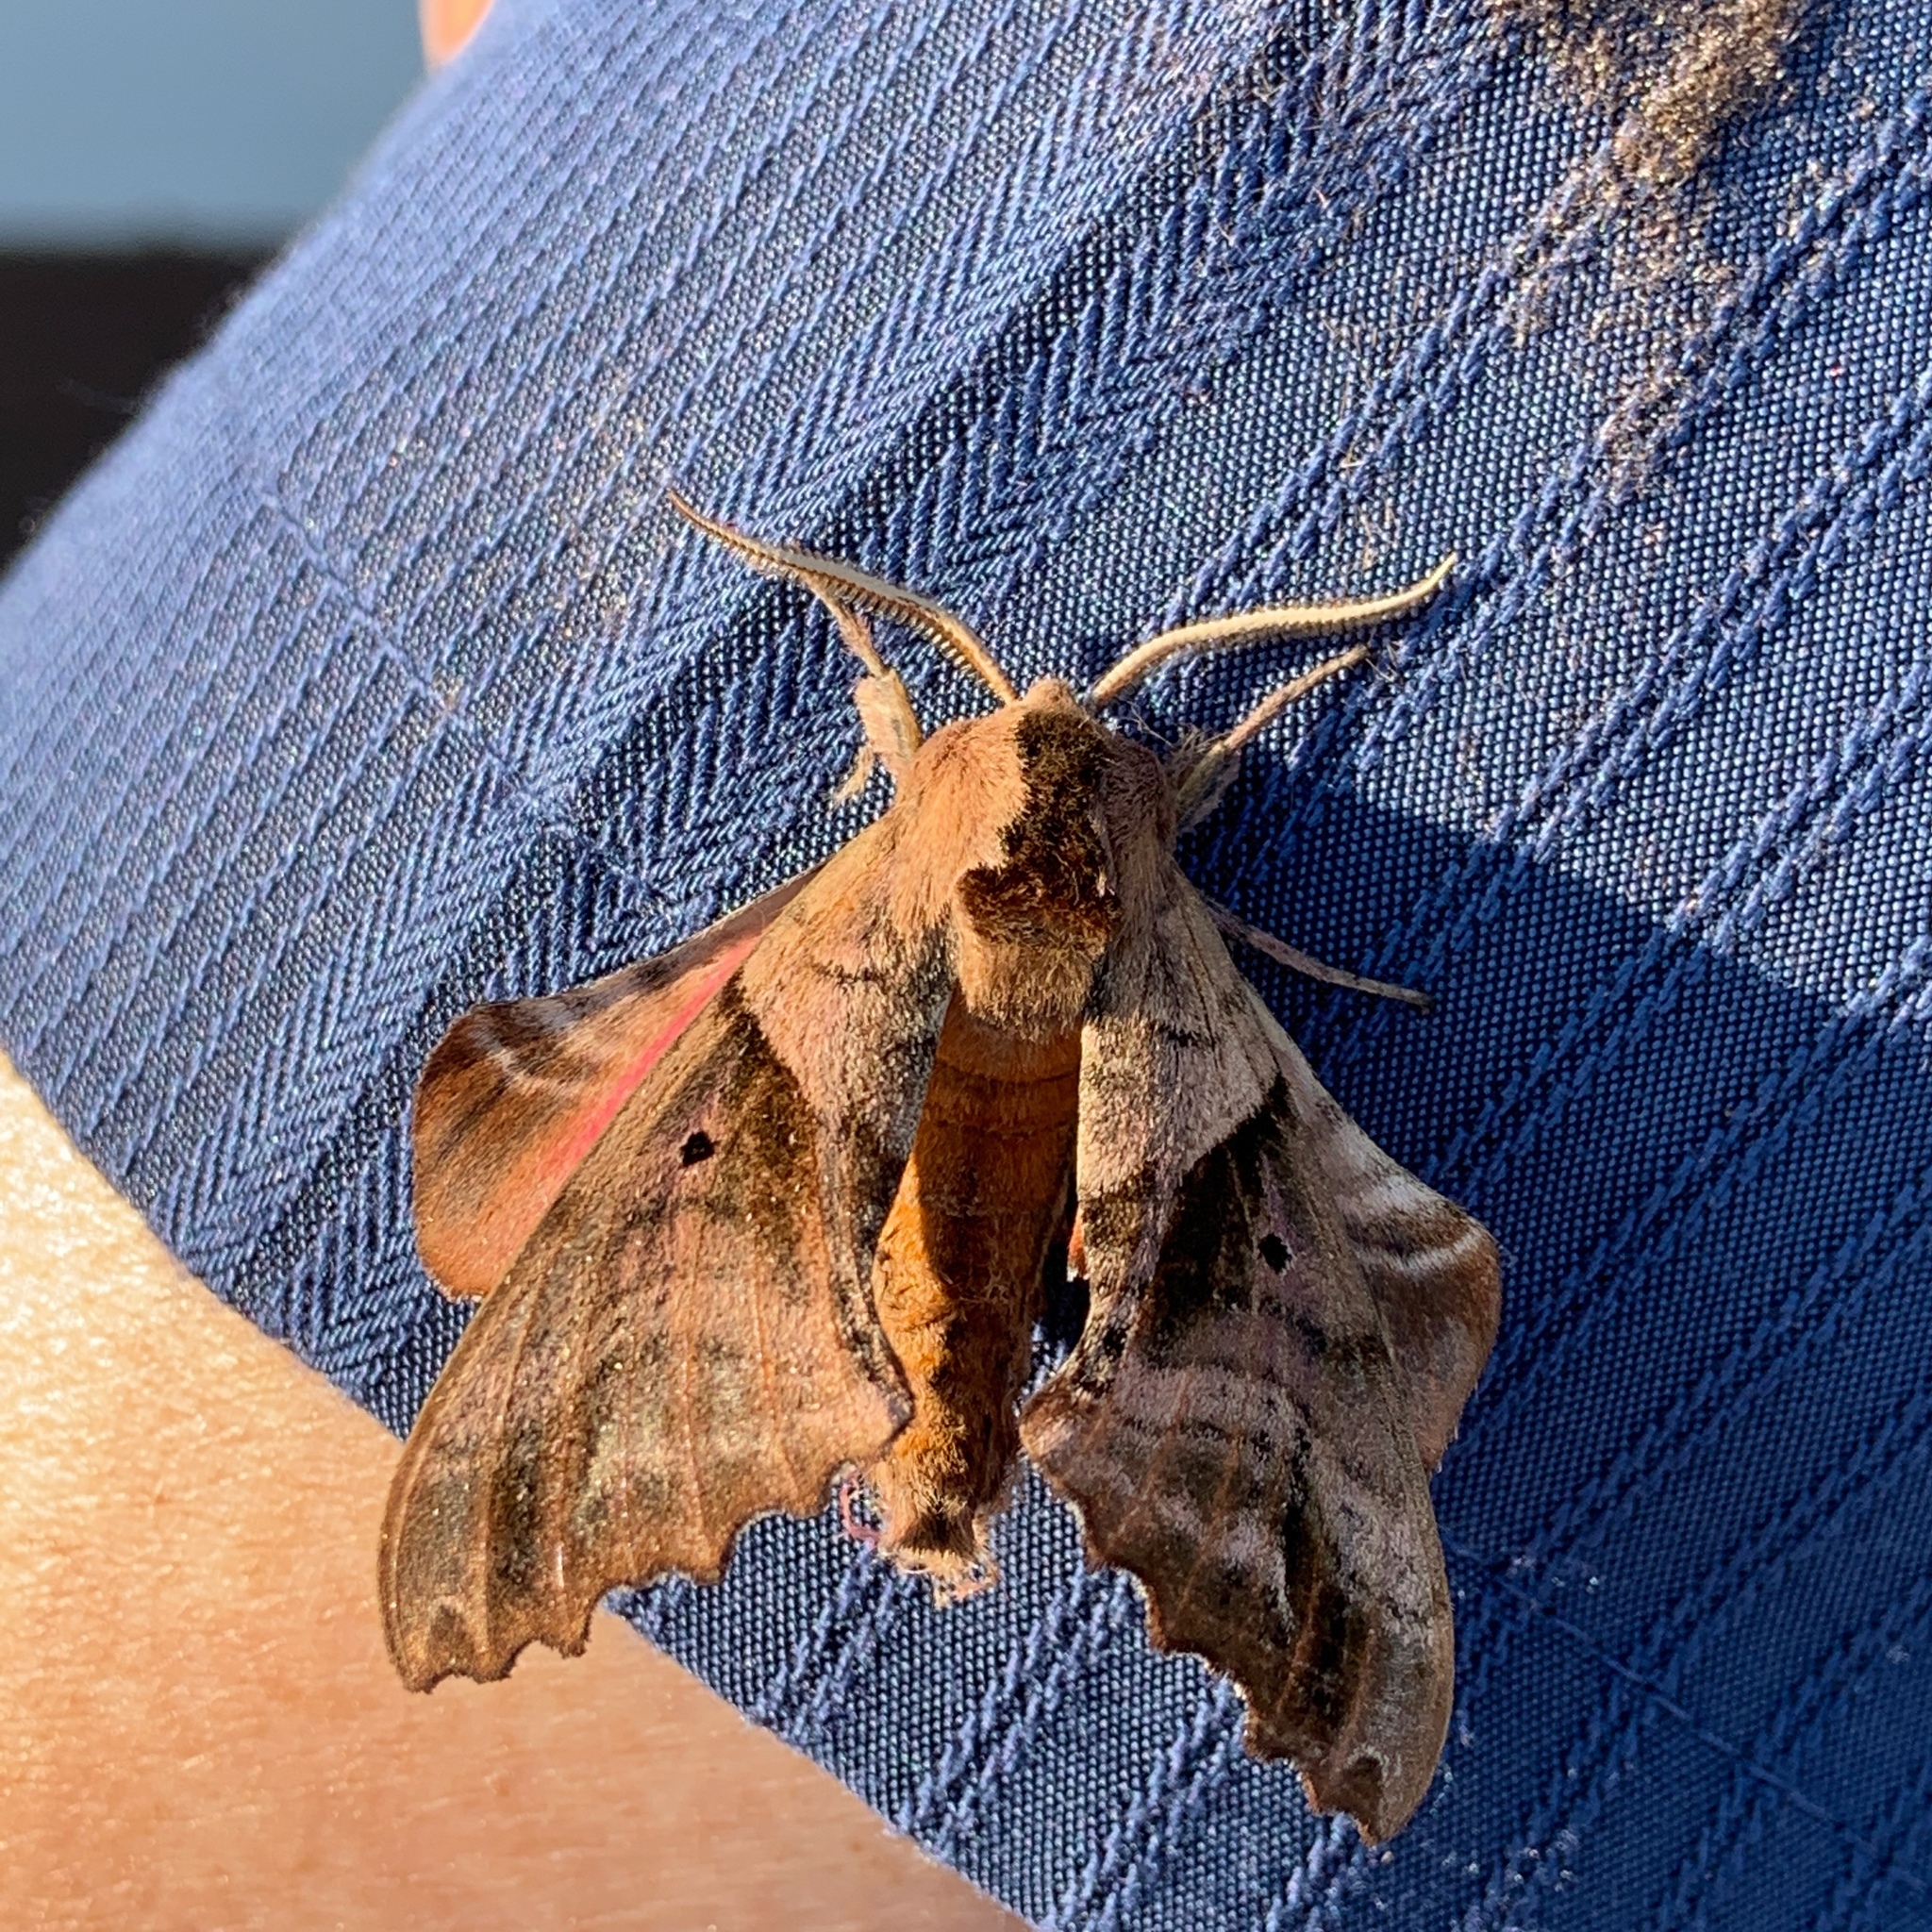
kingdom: Animalia
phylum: Arthropoda
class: Insecta
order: Lepidoptera
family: Sphingidae
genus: Paonias
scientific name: Paonias excaecata
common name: Blind-eyed sphinx
